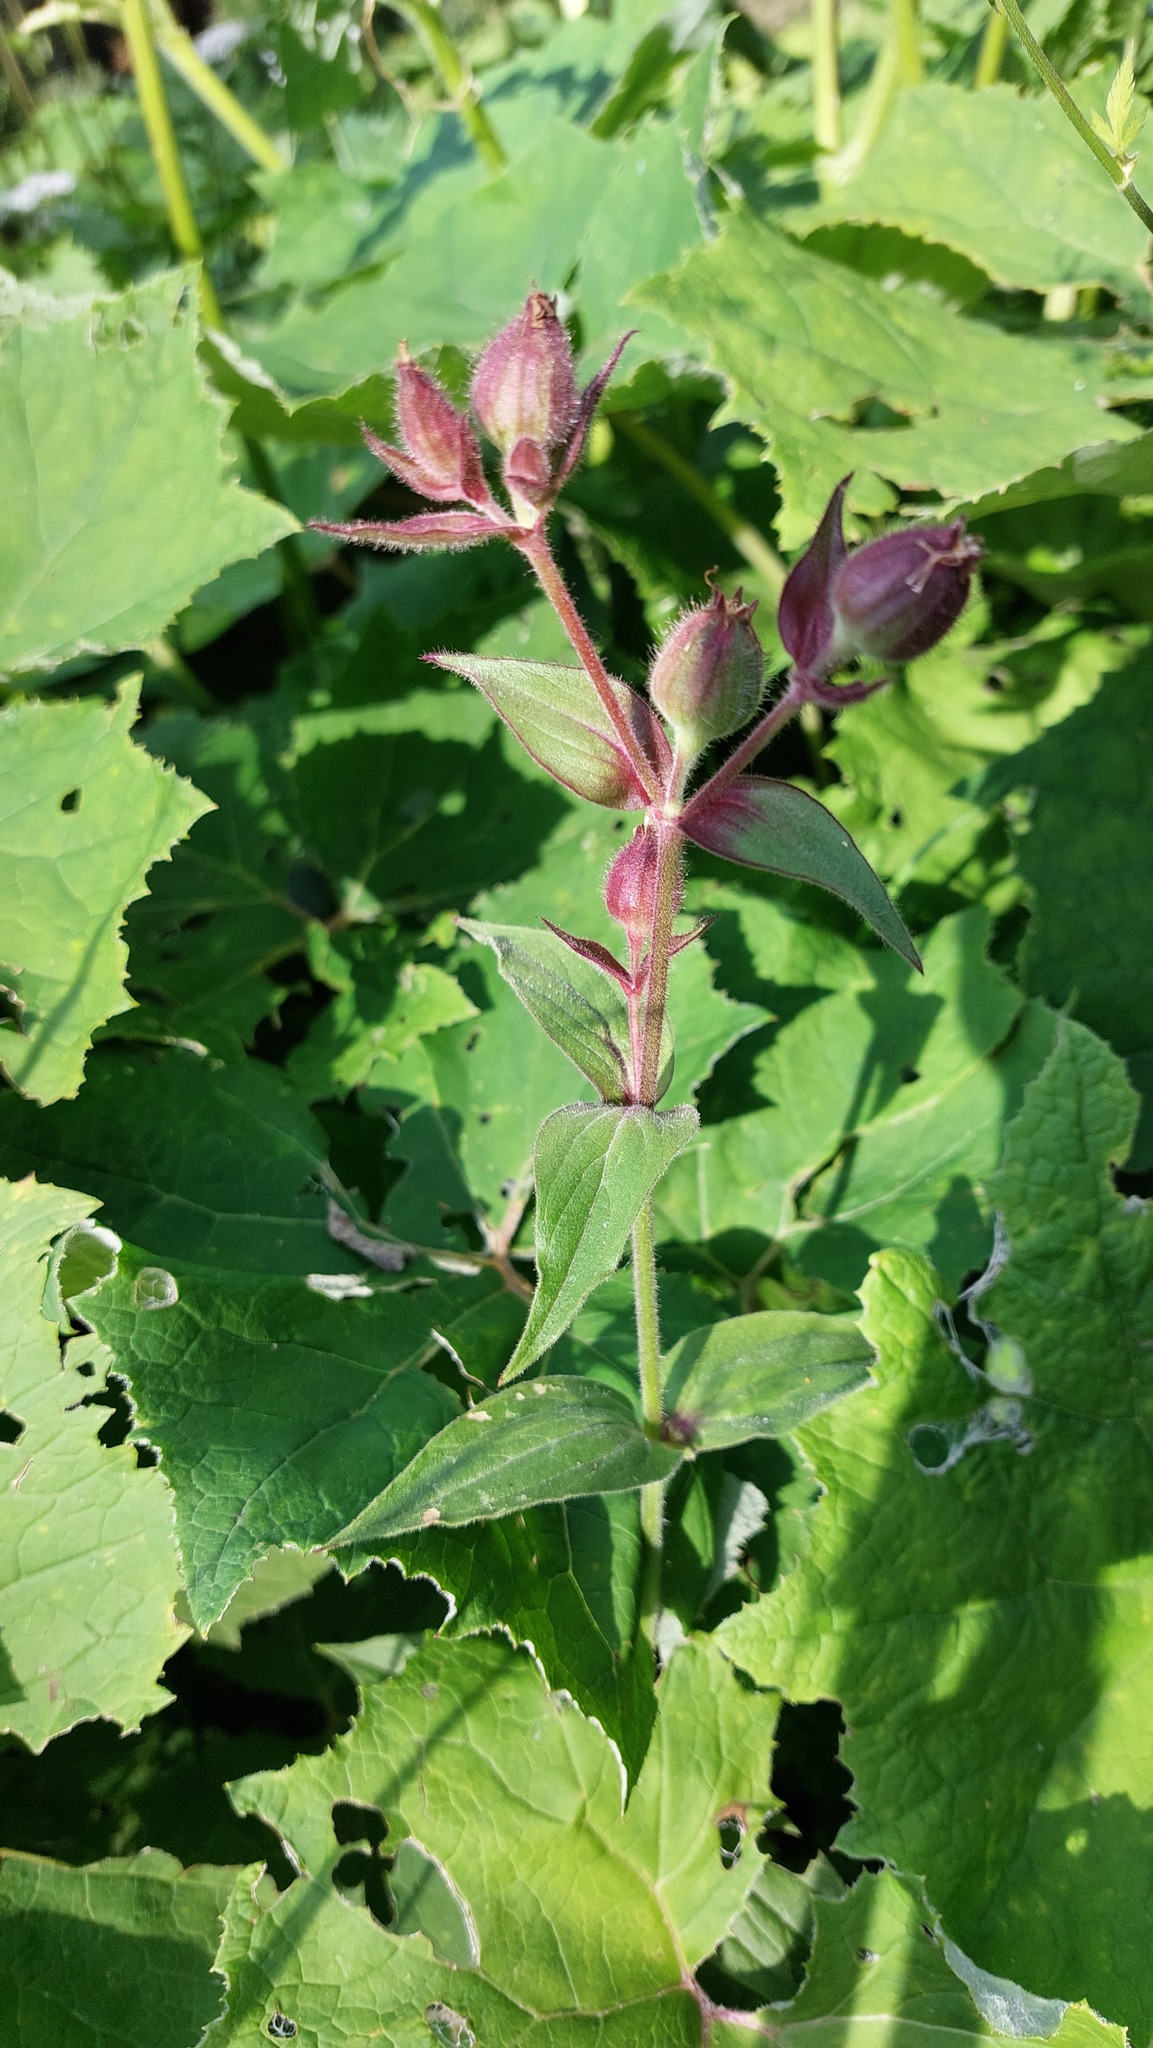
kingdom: Plantae
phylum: Tracheophyta
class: Magnoliopsida
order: Caryophyllales
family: Caryophyllaceae
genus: Silene
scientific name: Silene dioica
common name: Red campion
